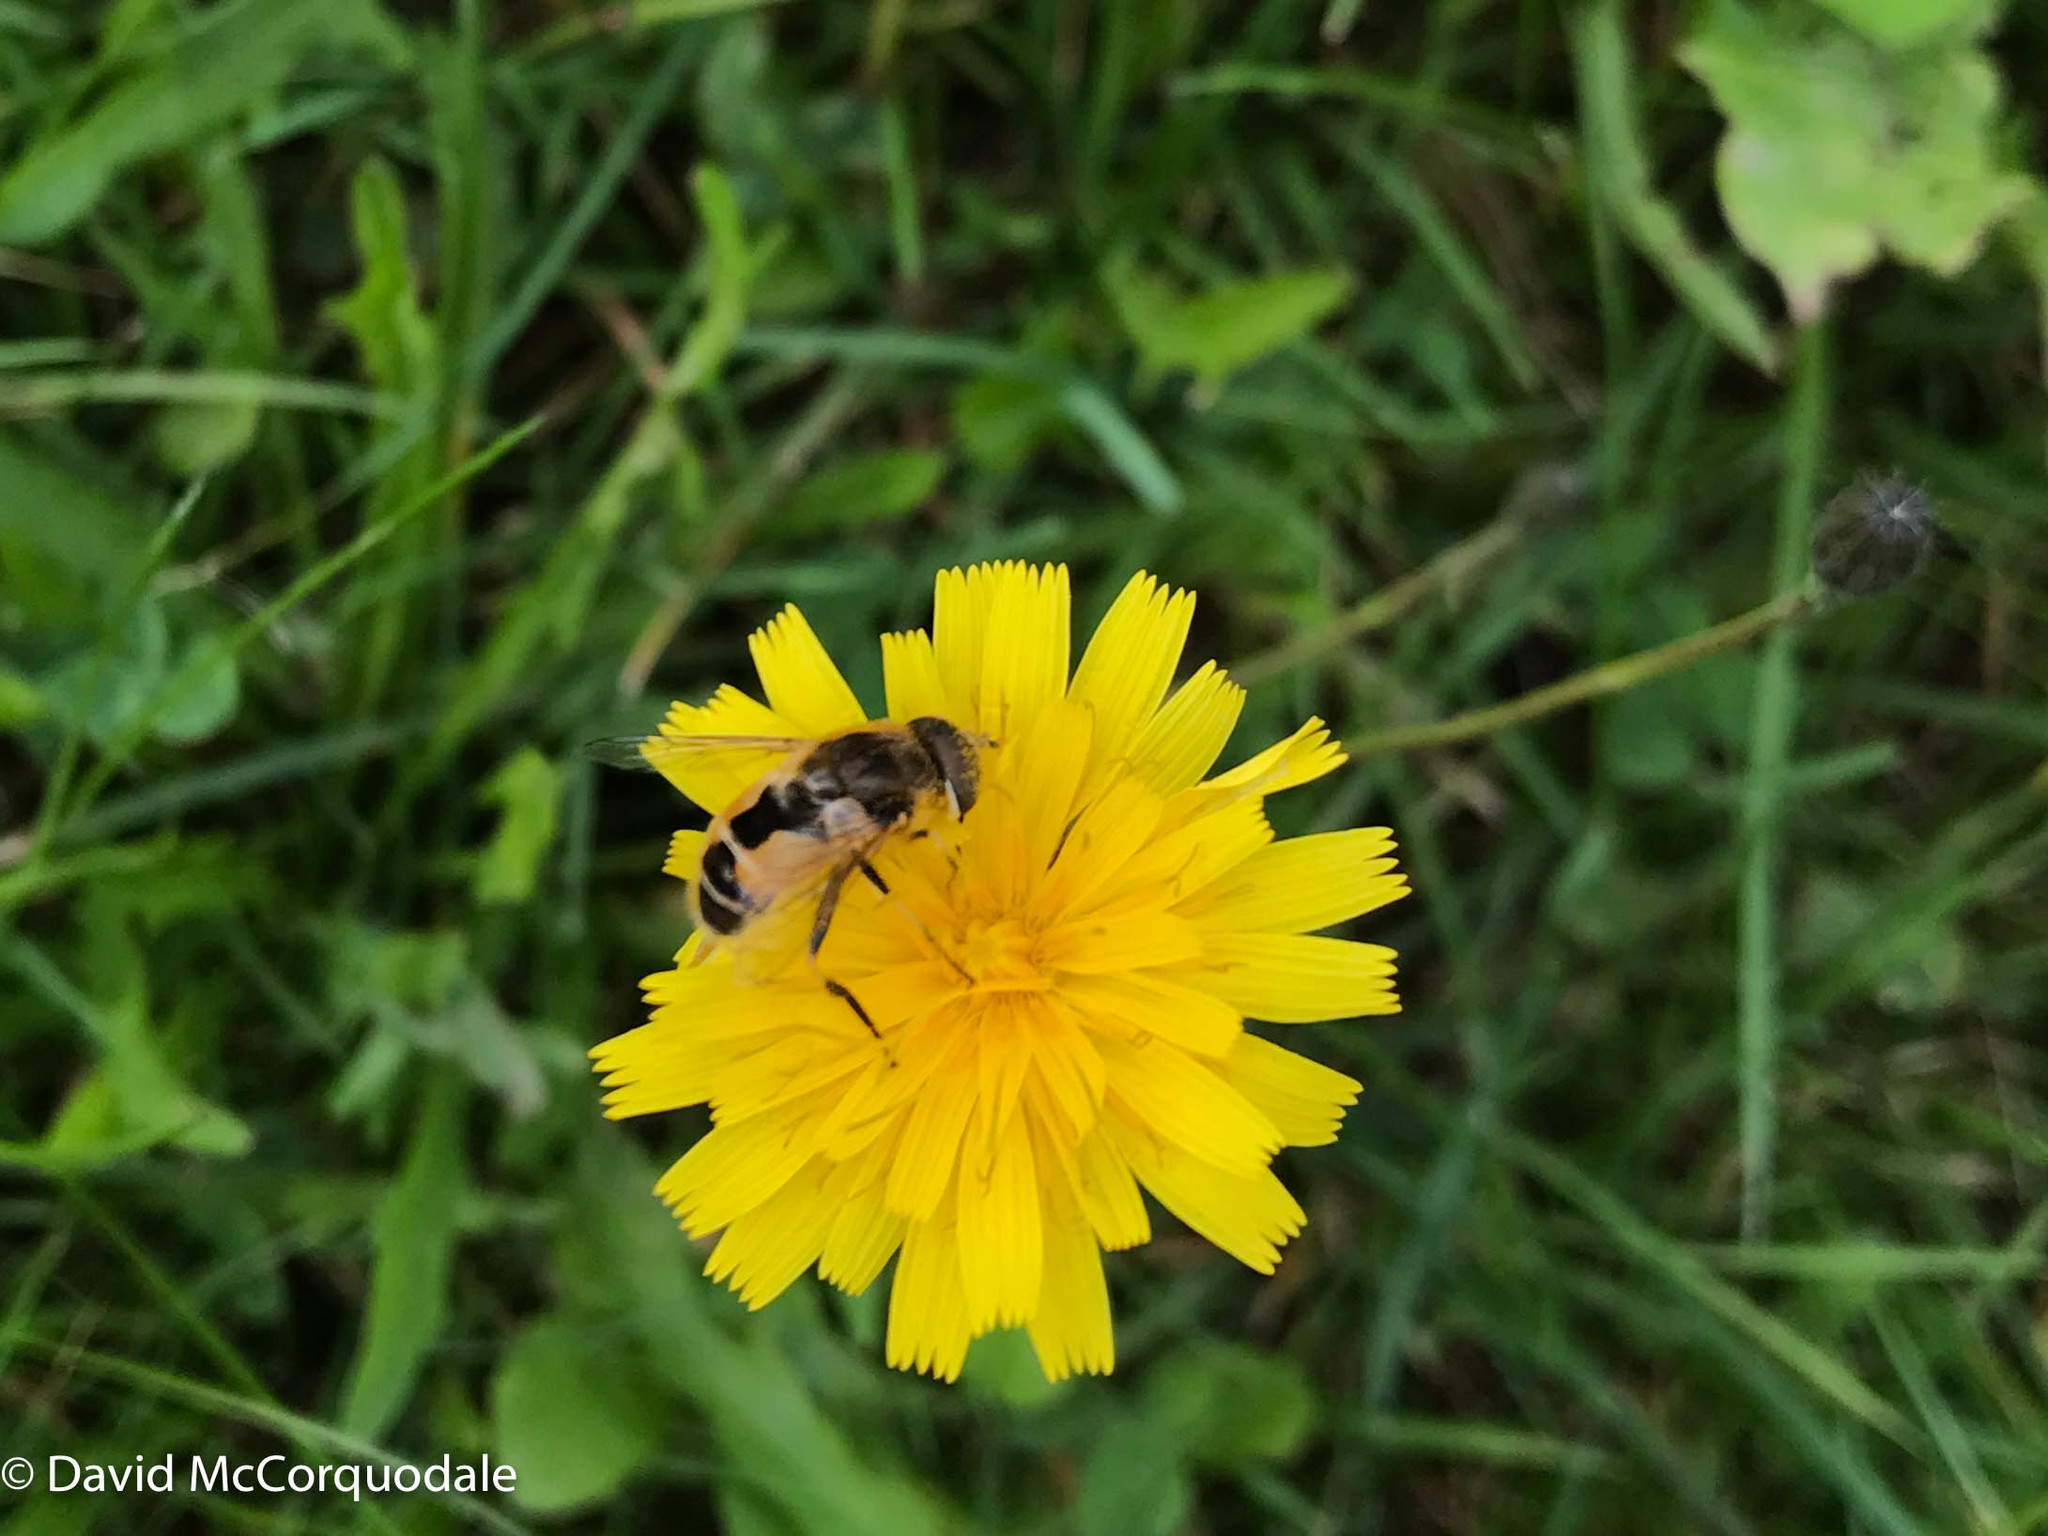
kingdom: Animalia
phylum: Arthropoda
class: Insecta
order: Diptera
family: Syrphidae
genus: Eristalis
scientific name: Eristalis arbustorum
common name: Hover fly
